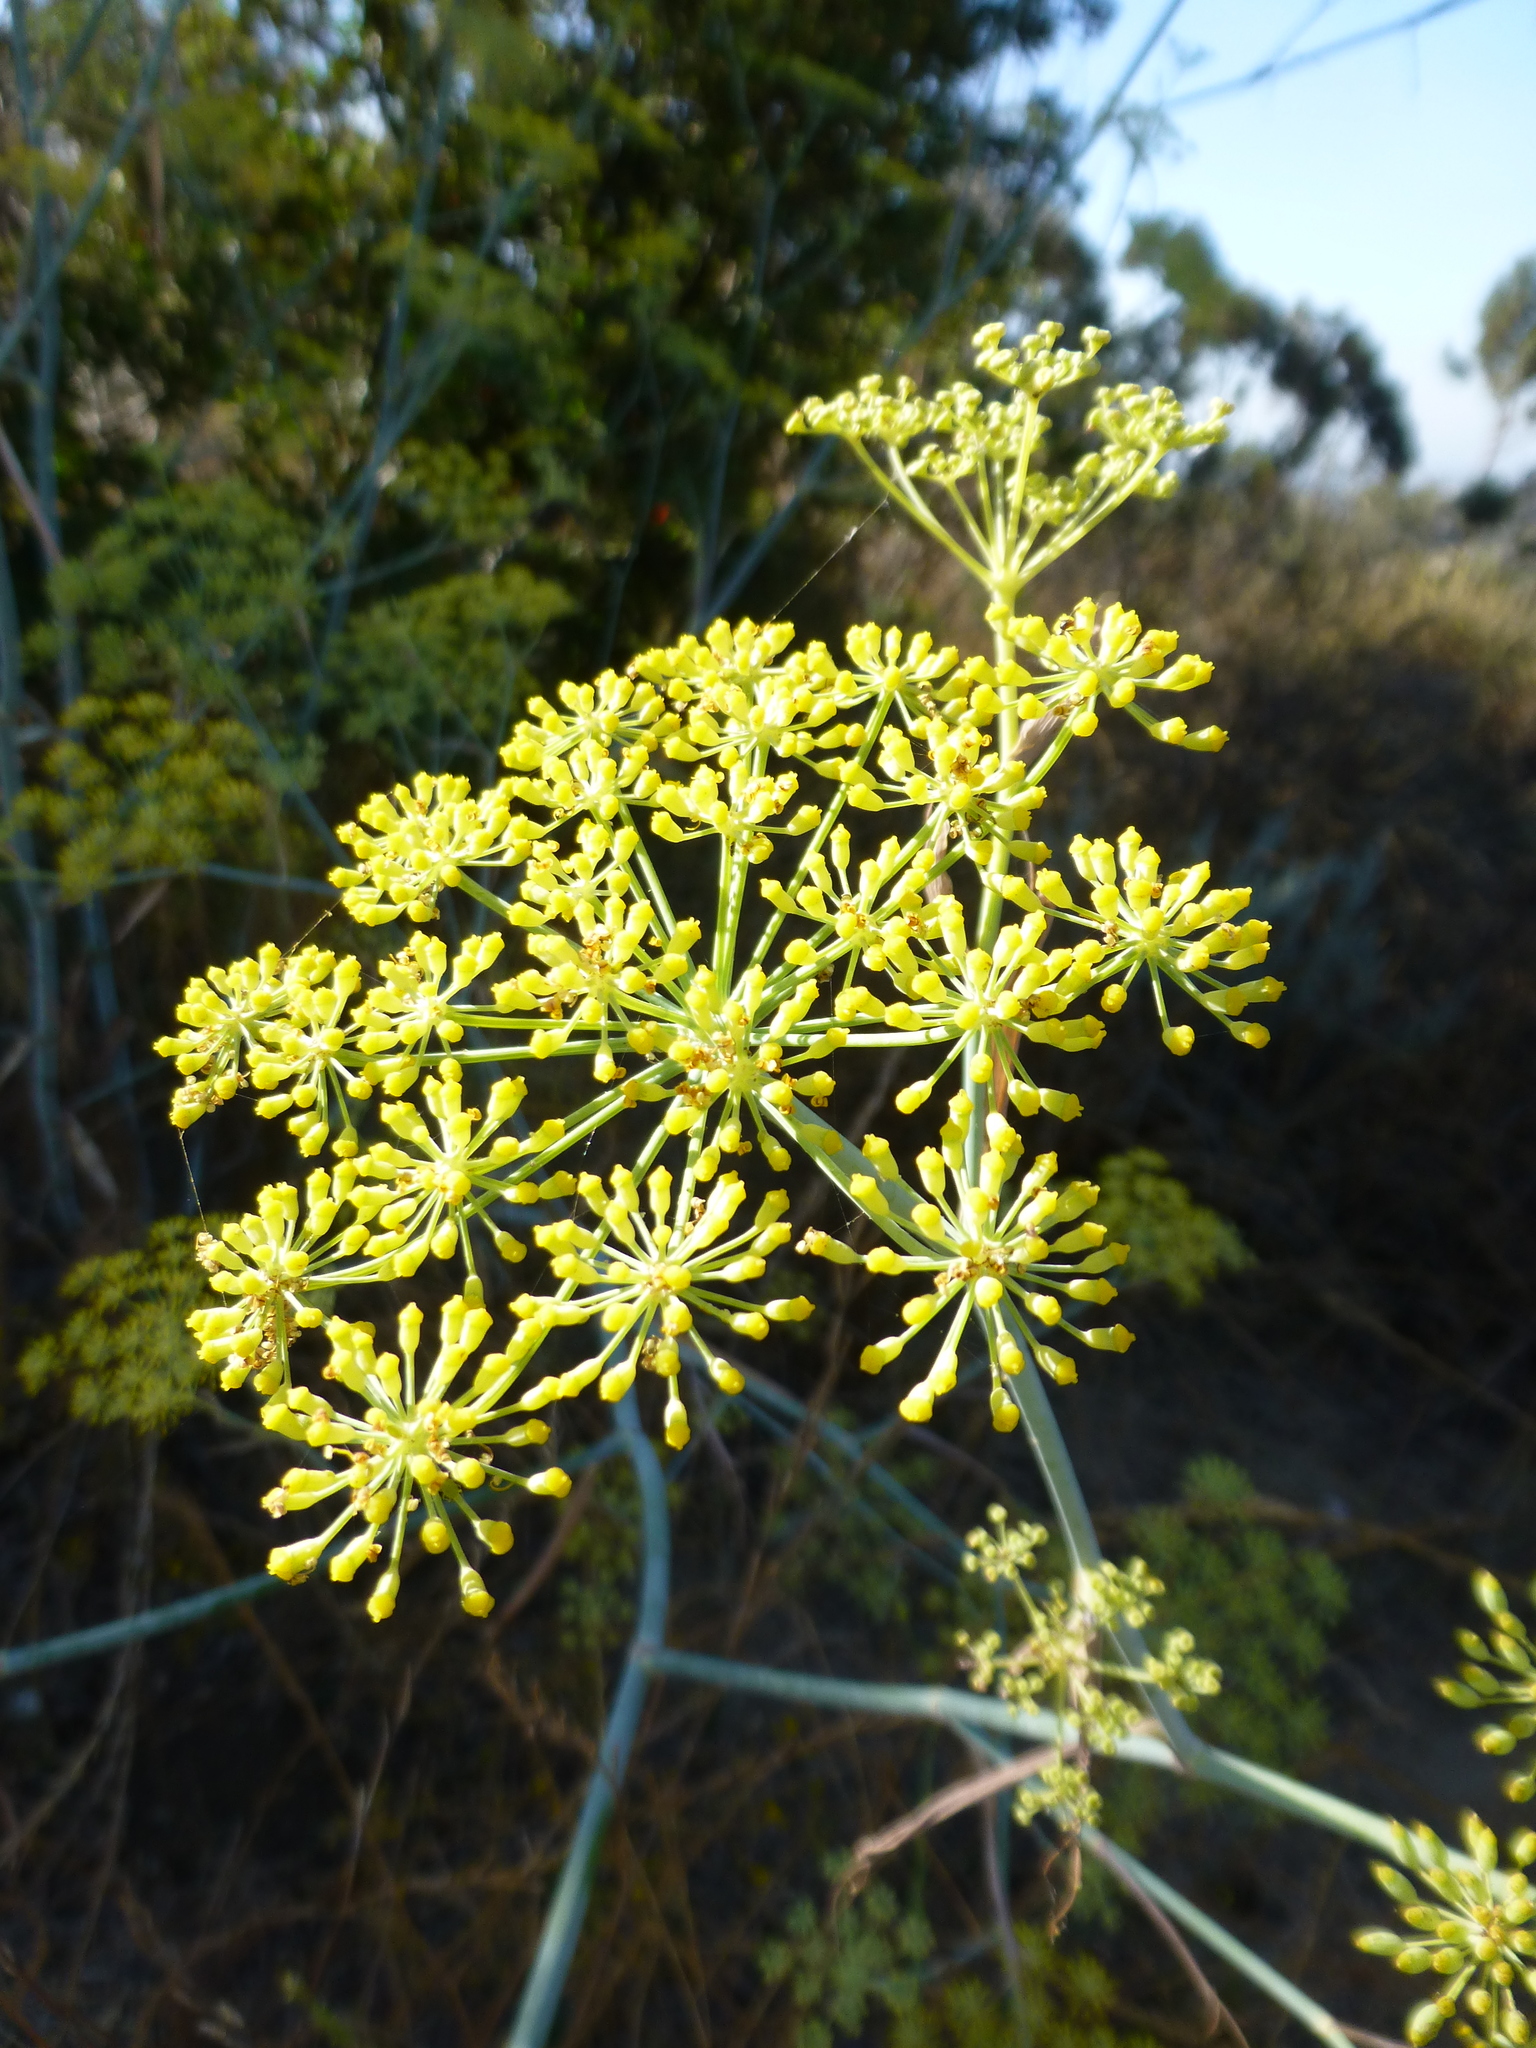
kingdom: Plantae
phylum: Tracheophyta
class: Magnoliopsida
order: Apiales
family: Apiaceae
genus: Foeniculum
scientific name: Foeniculum vulgare
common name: Fennel
